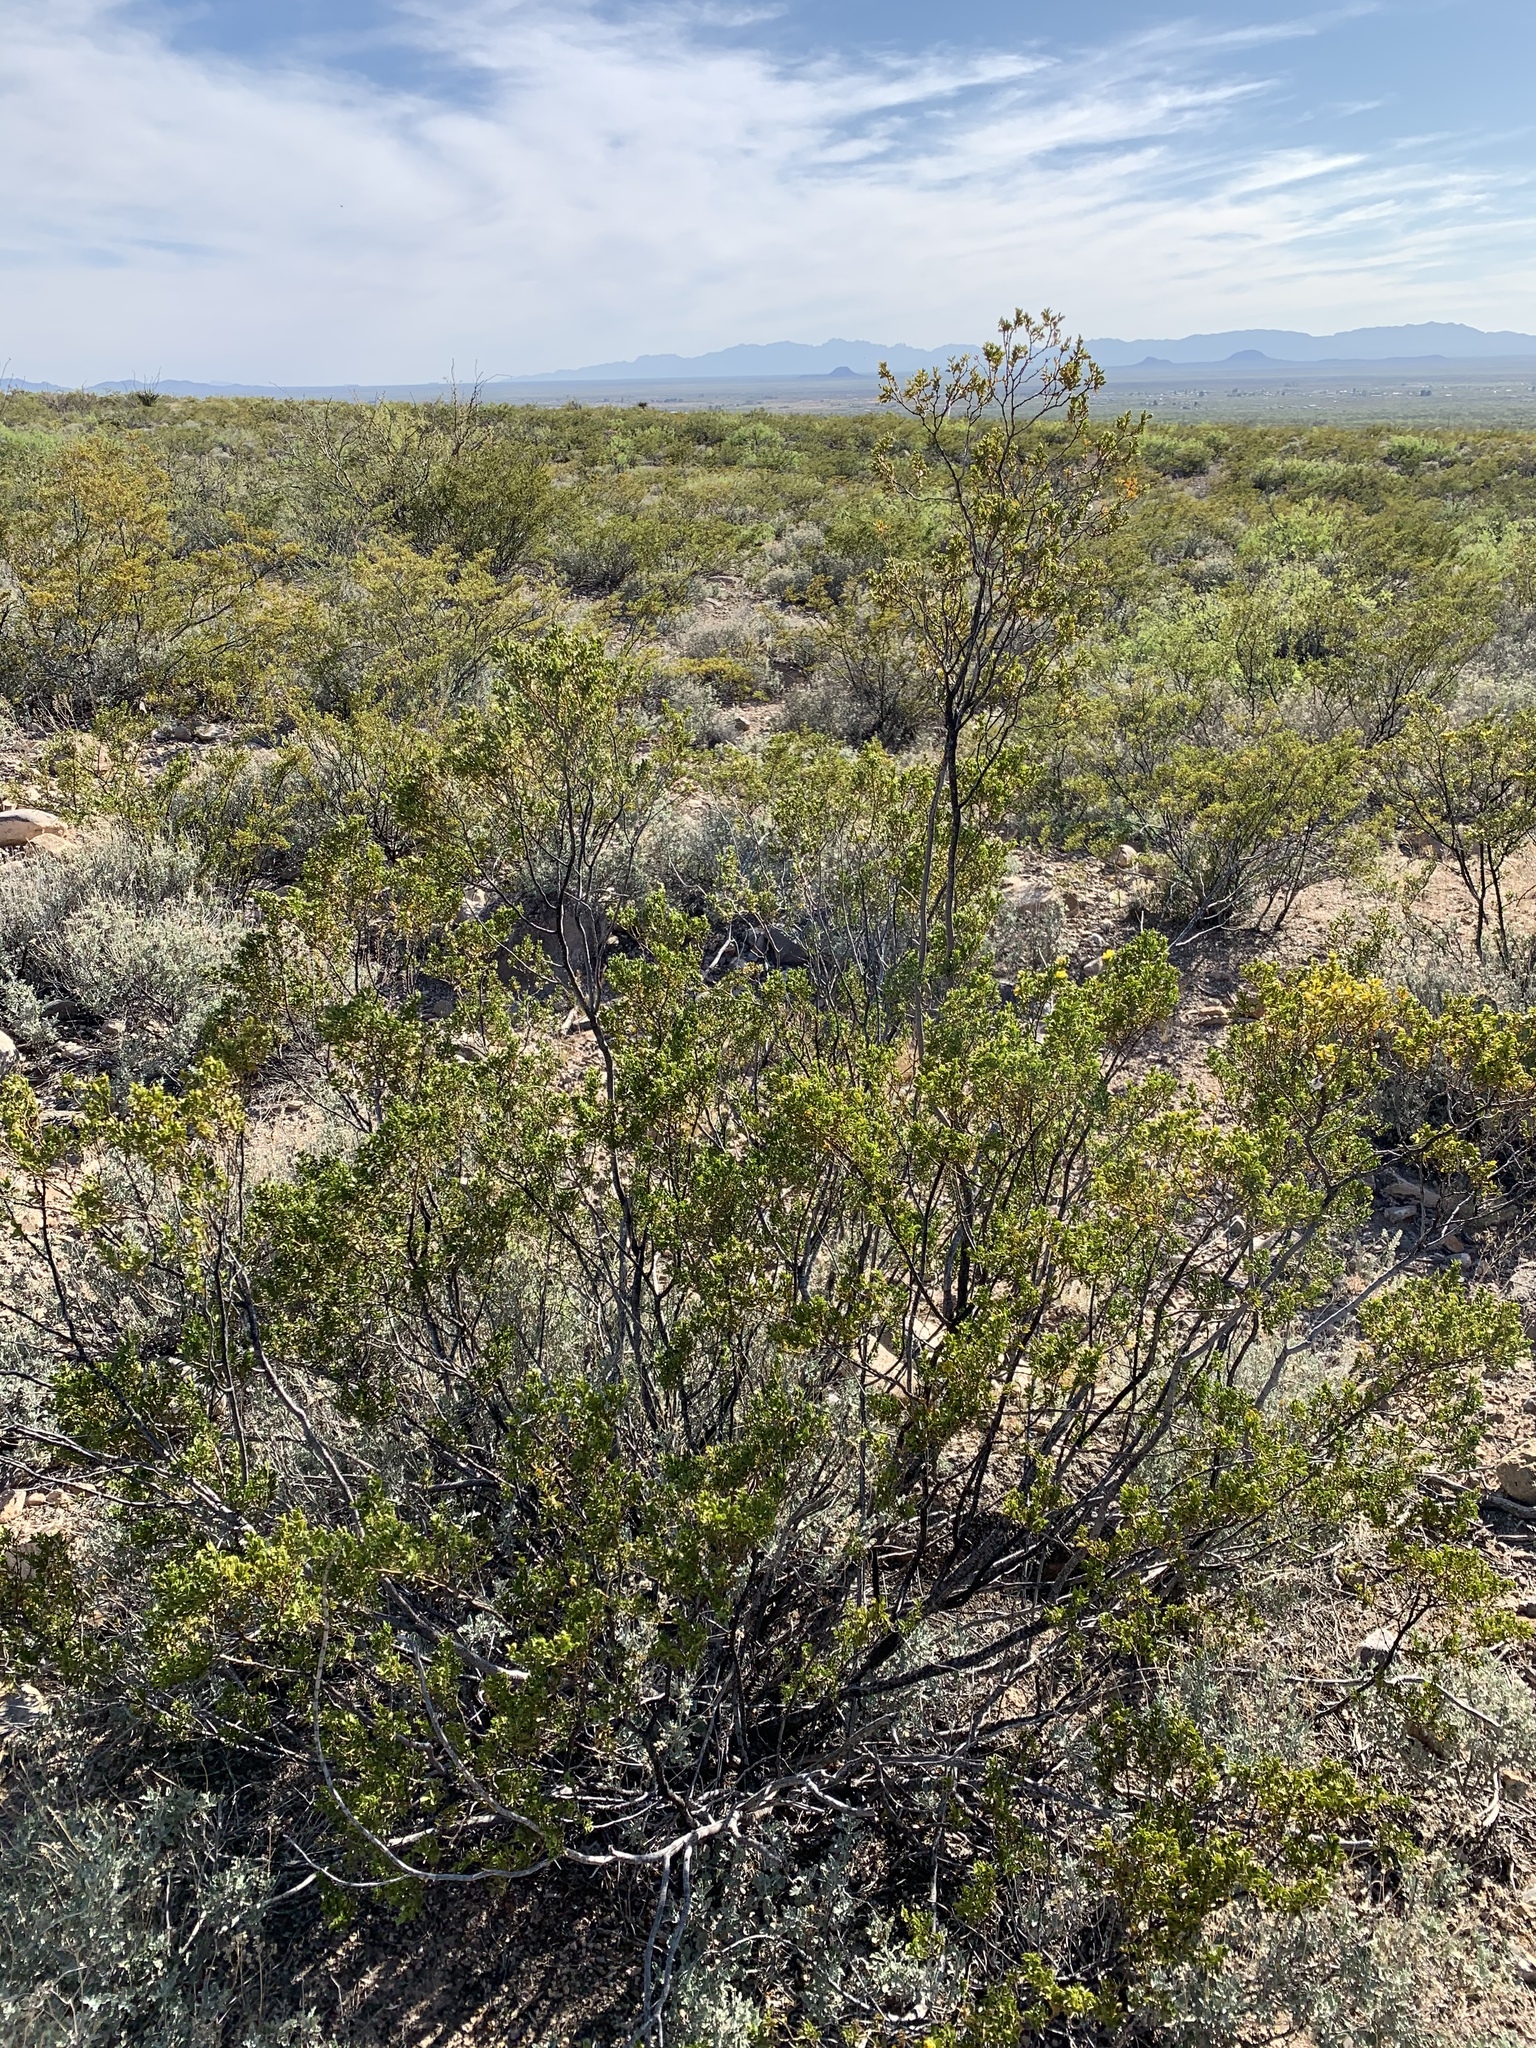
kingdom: Plantae
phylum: Tracheophyta
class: Magnoliopsida
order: Zygophyllales
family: Zygophyllaceae
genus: Larrea
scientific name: Larrea tridentata
